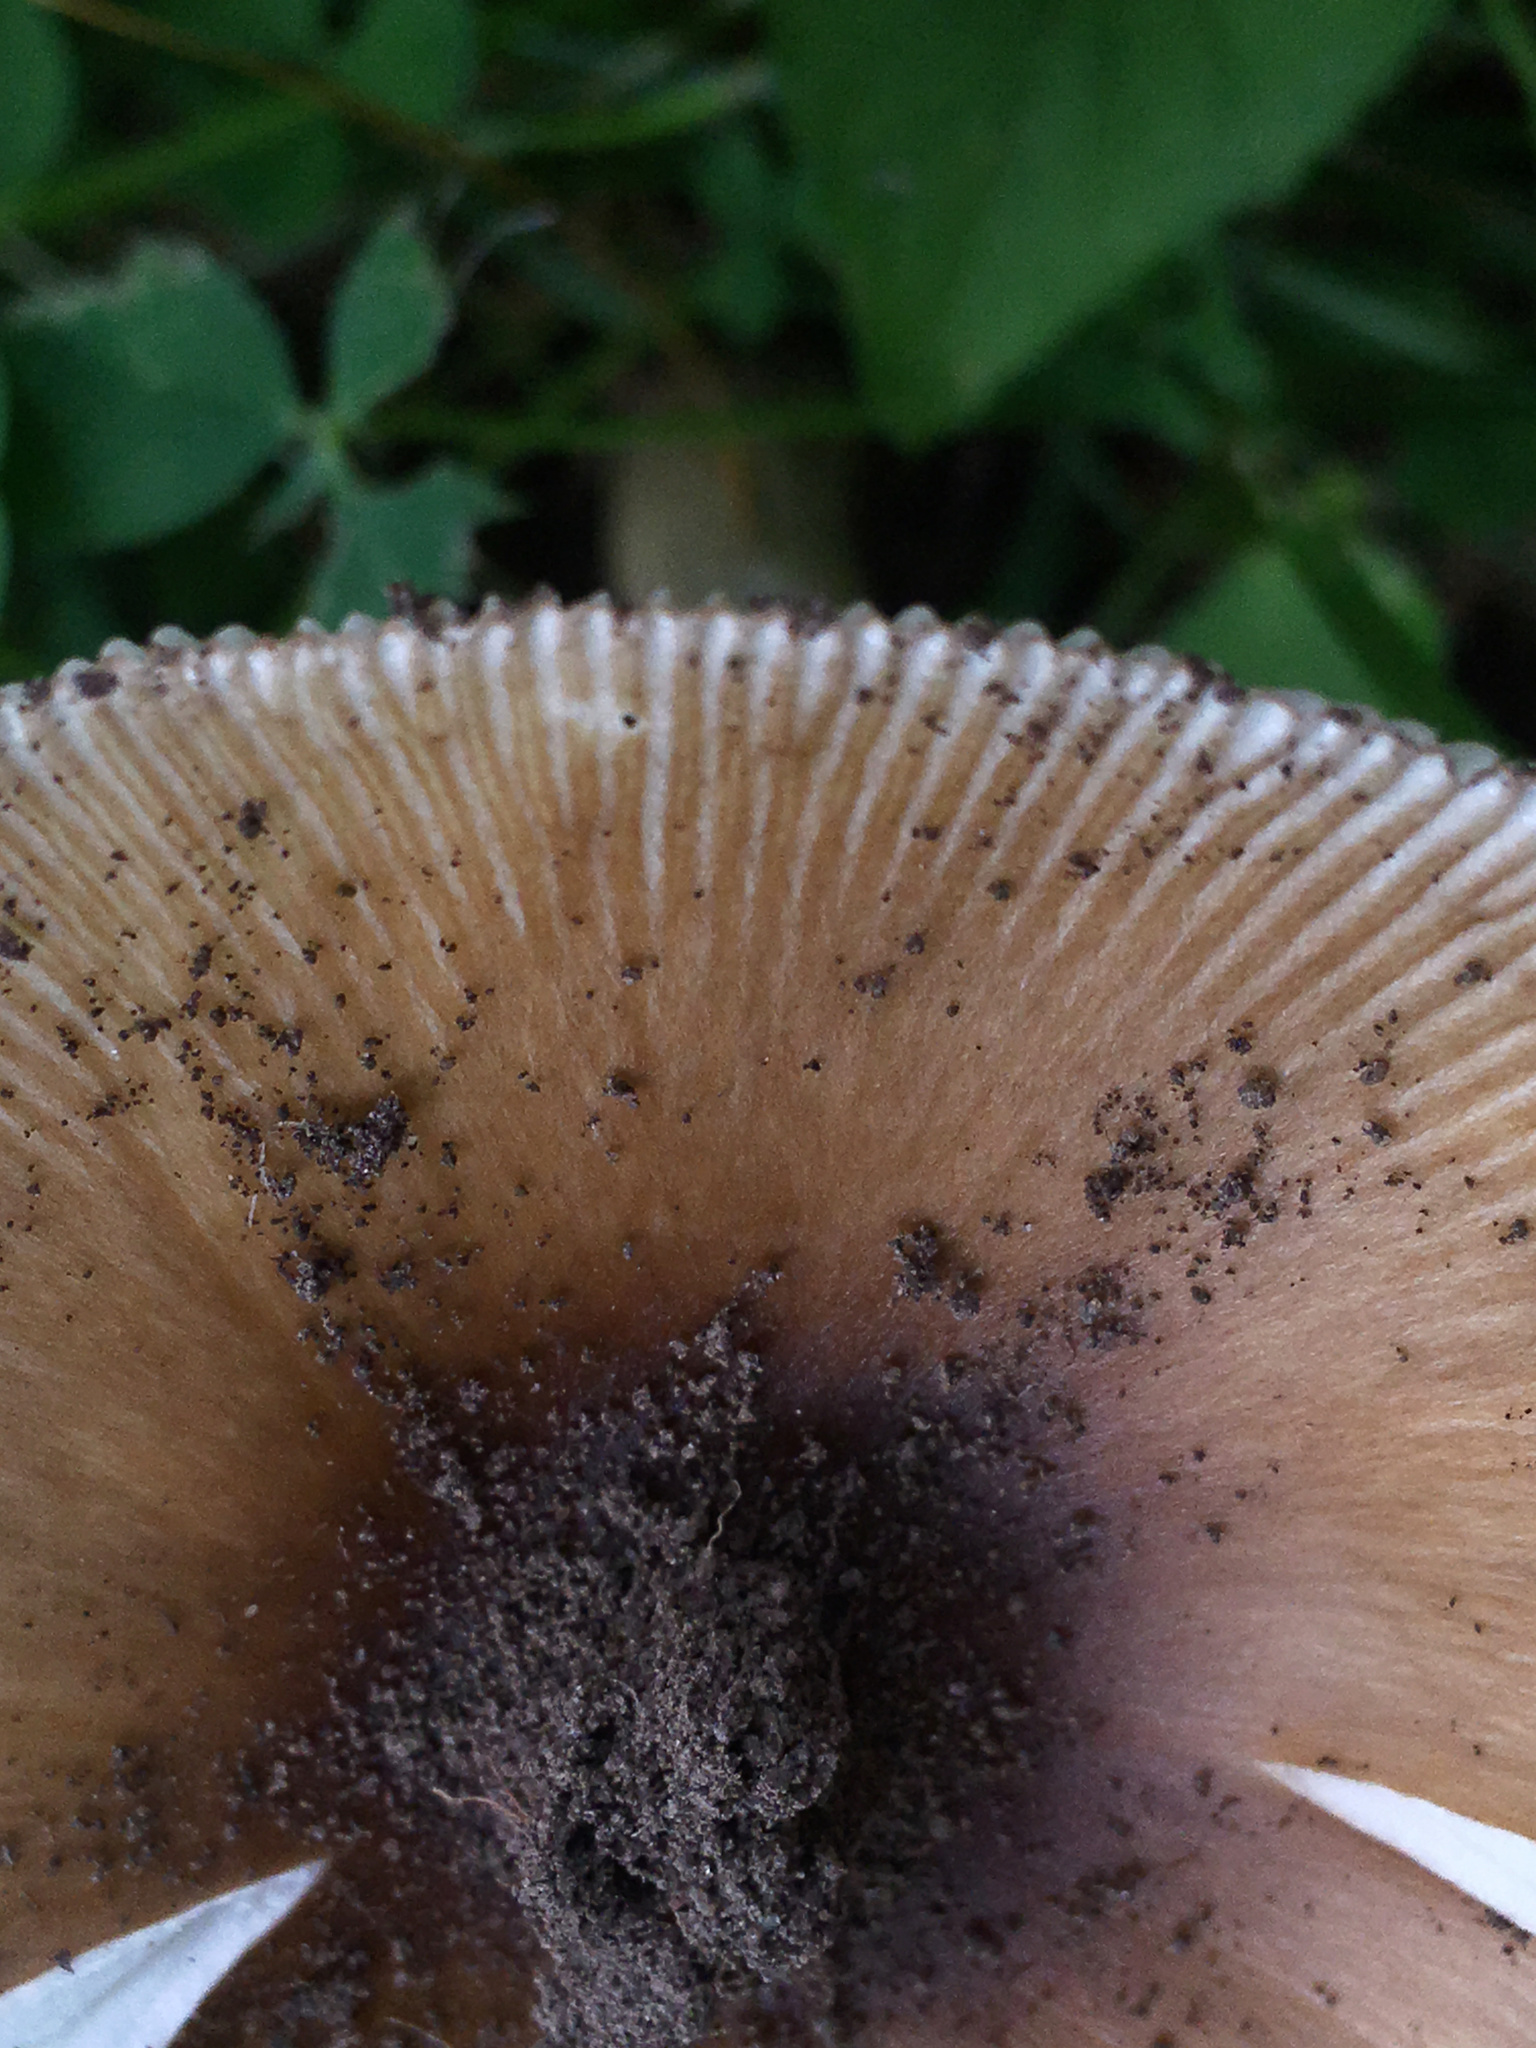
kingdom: Fungi
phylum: Basidiomycota
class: Agaricomycetes
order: Agaricales
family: Amanitaceae
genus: Amanita
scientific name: Amanita fulva
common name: Tawny grisette
